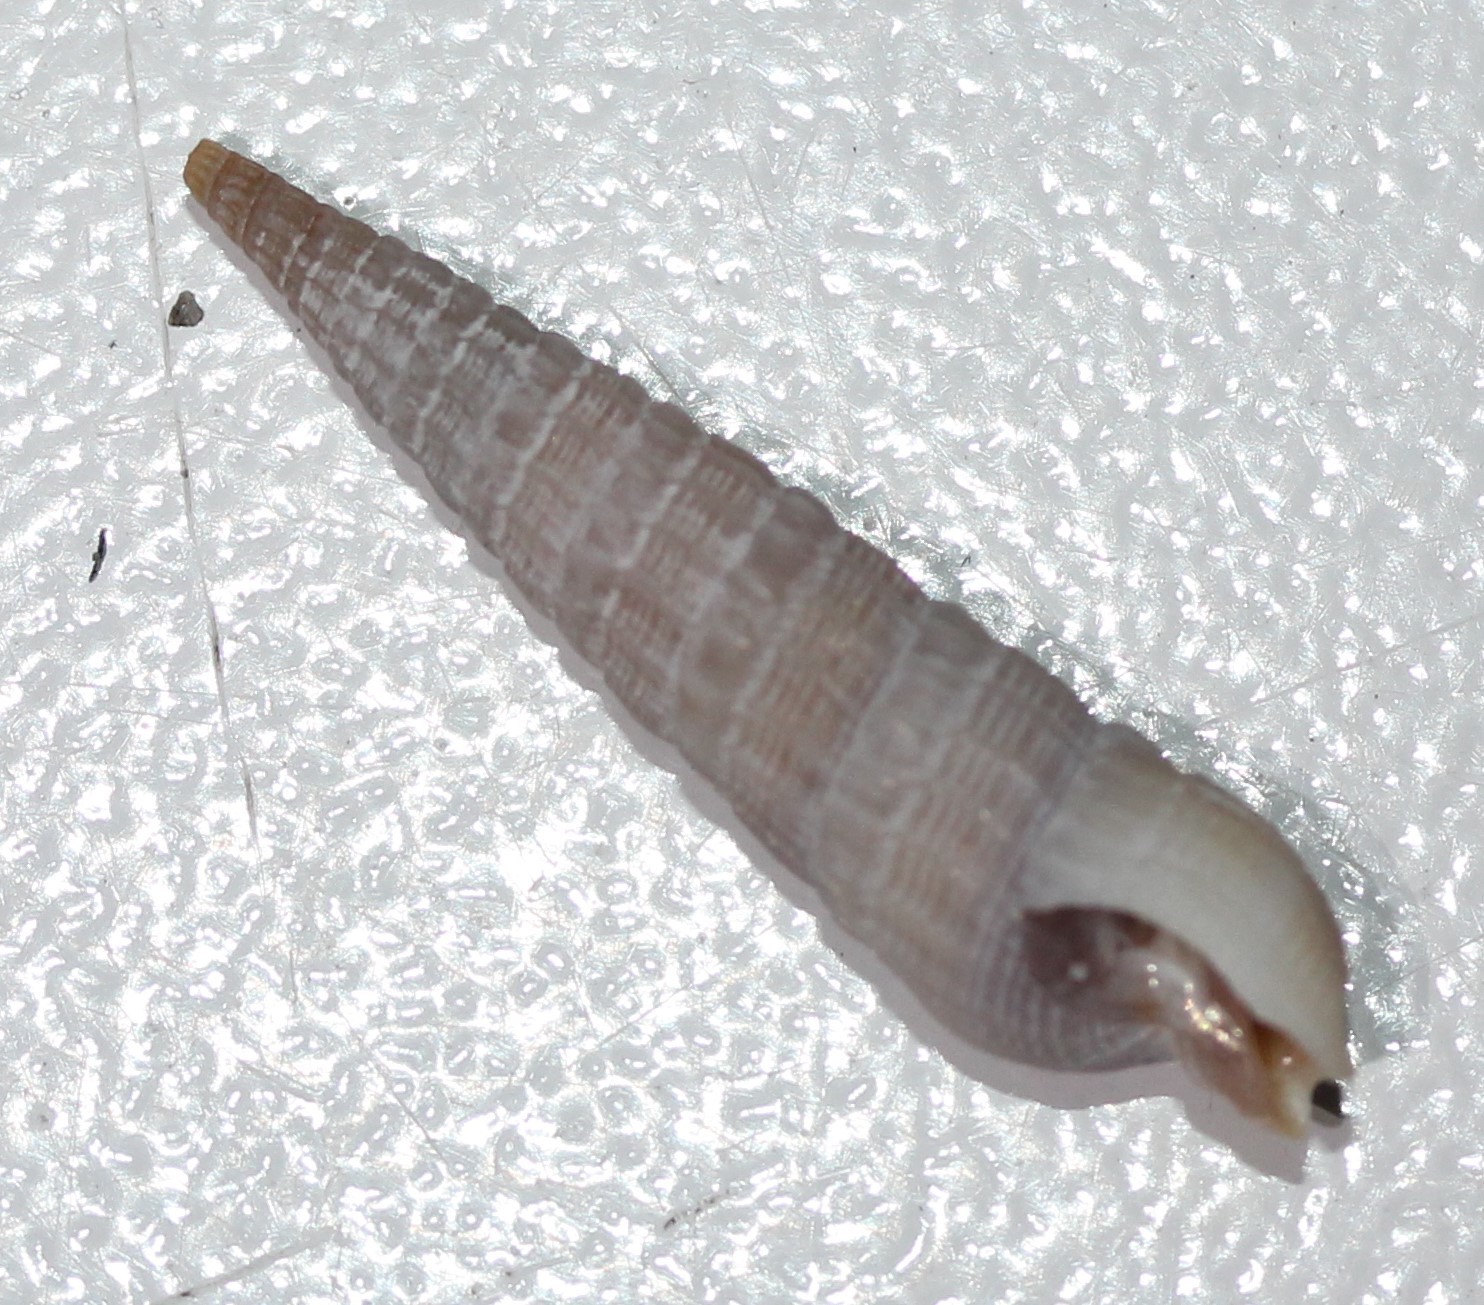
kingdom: Animalia
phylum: Mollusca
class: Gastropoda
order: Neogastropoda
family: Terebridae
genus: Neoterebra
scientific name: Neoterebra dislocata
